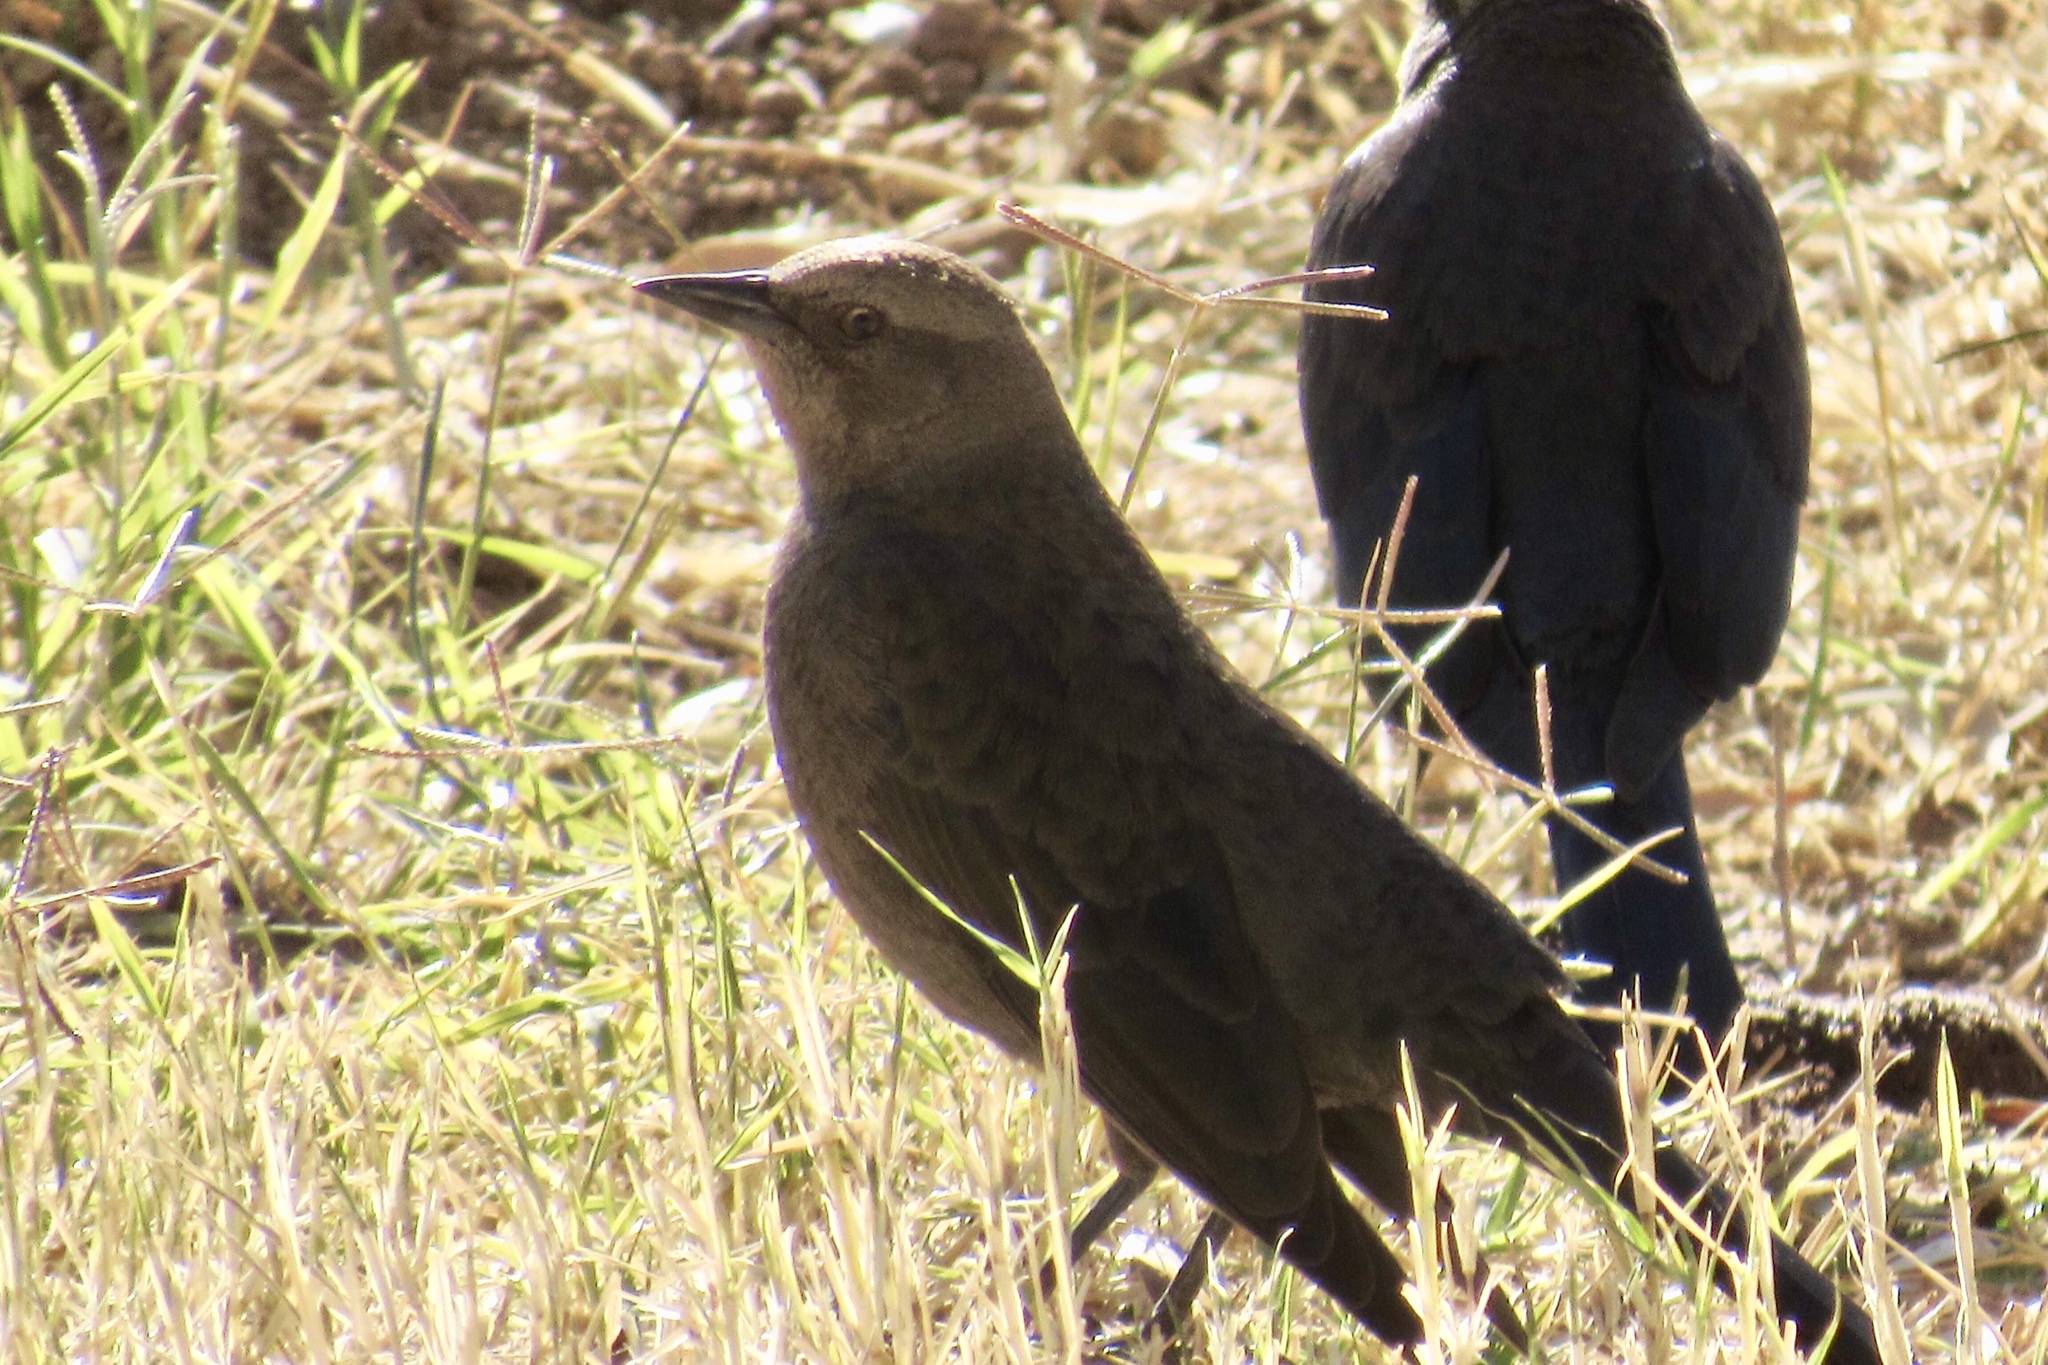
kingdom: Animalia
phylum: Chordata
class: Aves
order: Passeriformes
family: Icteridae
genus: Euphagus
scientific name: Euphagus cyanocephalus
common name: Brewer's blackbird
